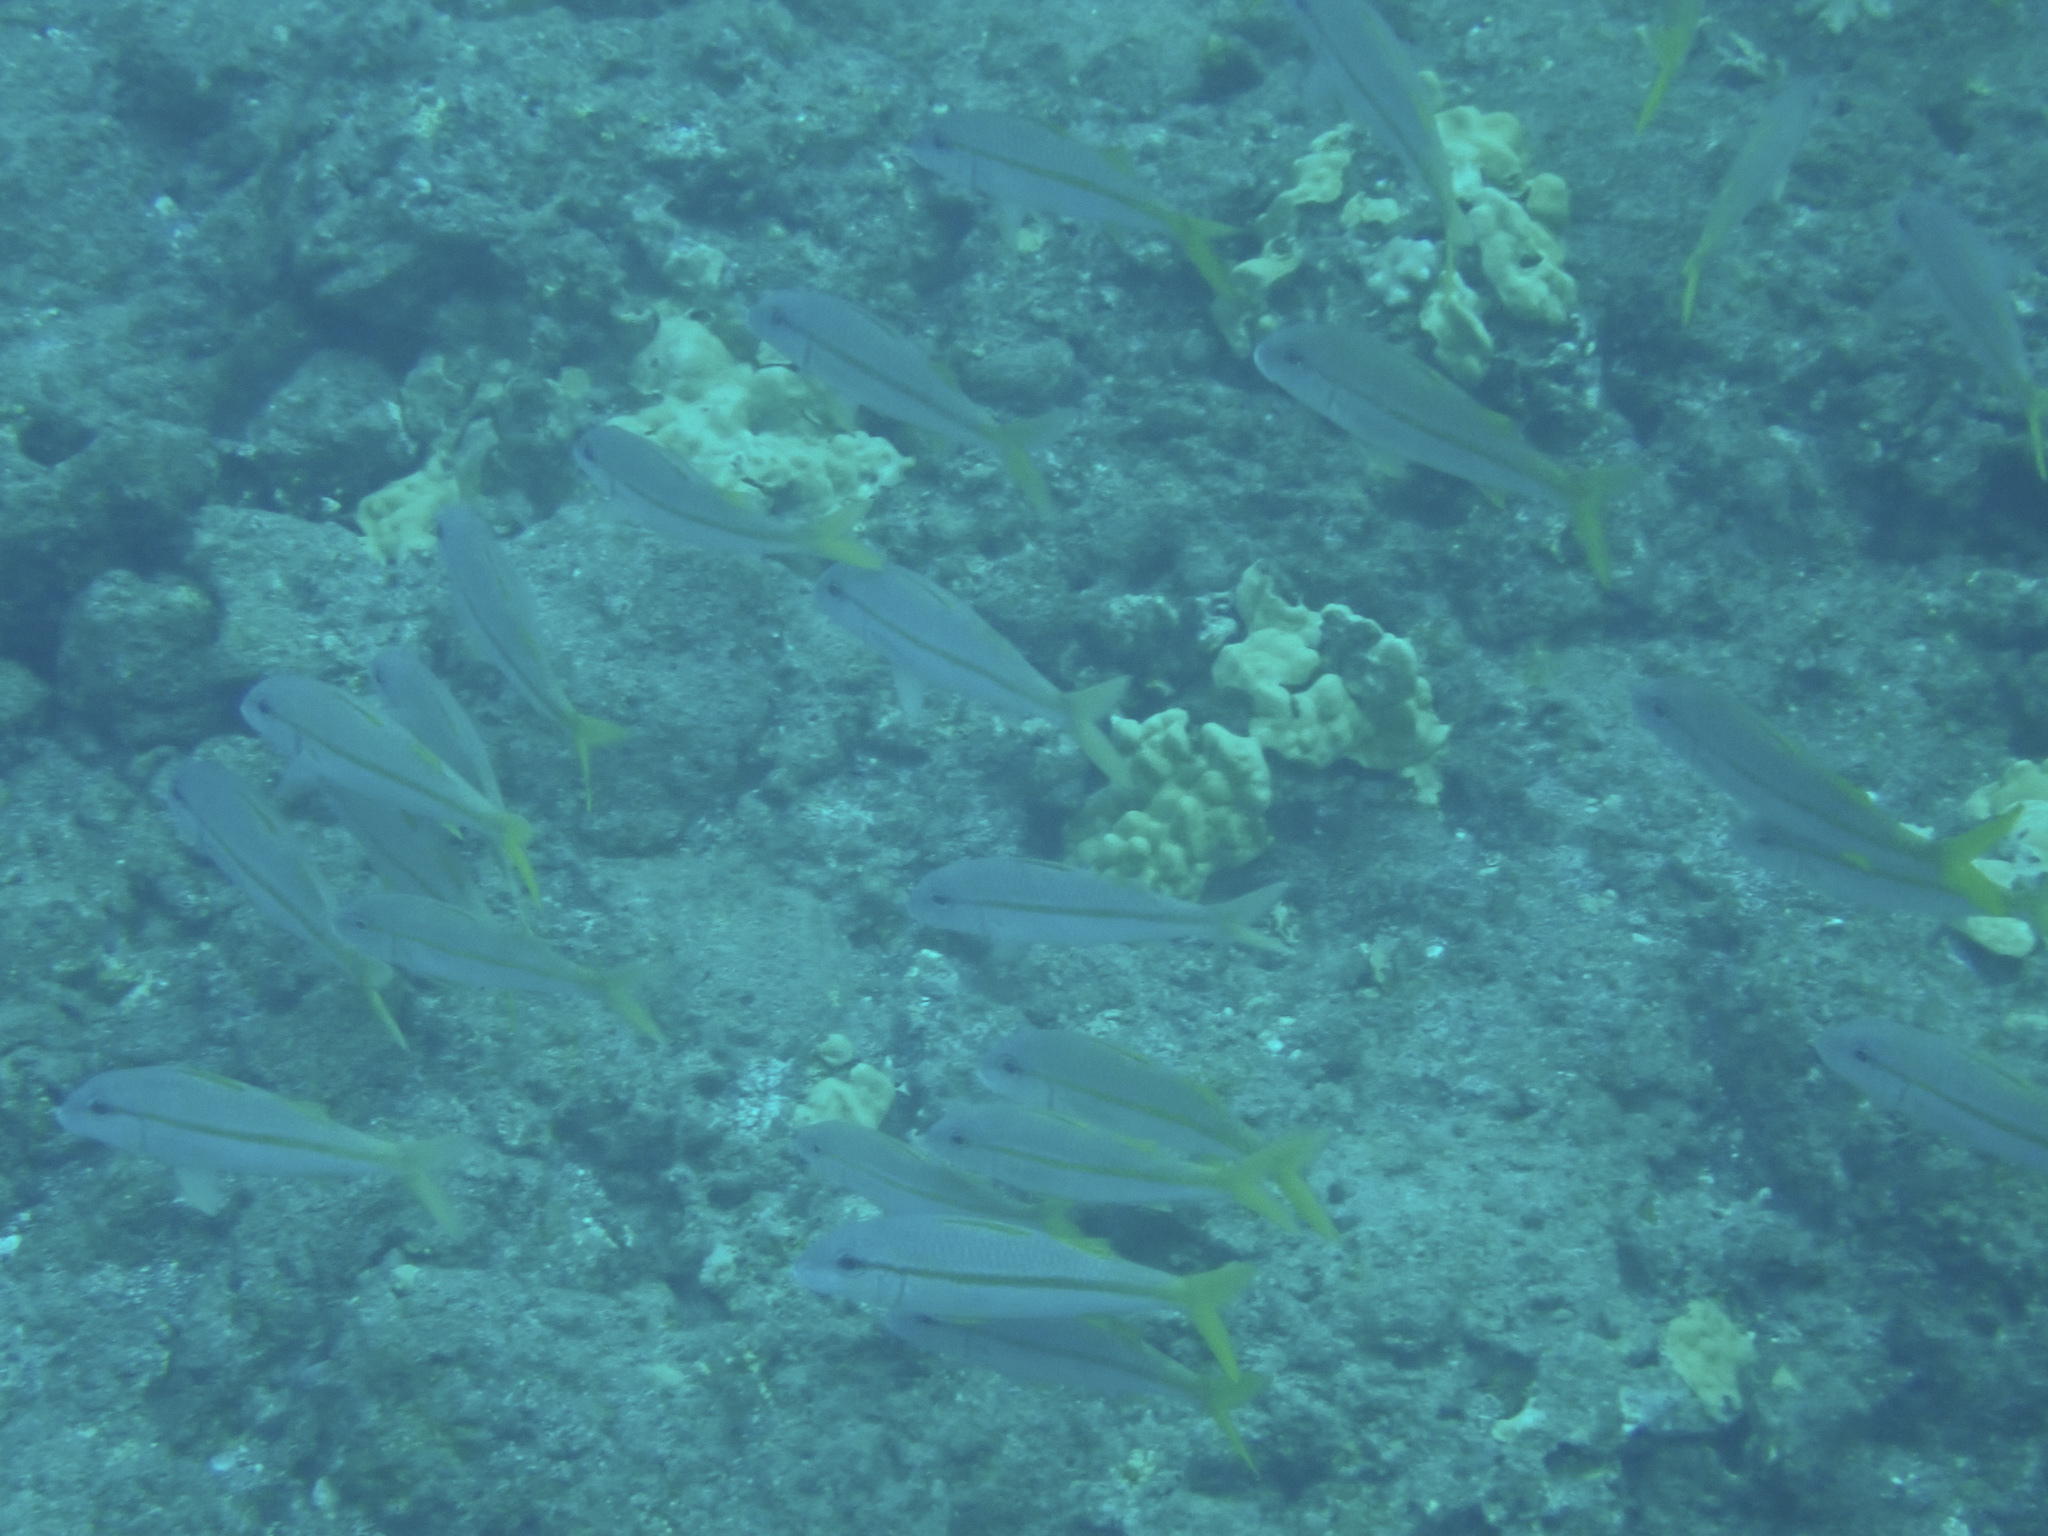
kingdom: Animalia
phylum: Chordata
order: Perciformes
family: Mullidae
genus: Mulloidichthys
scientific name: Mulloidichthys vanicolensis
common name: Yellowfin goatfish
